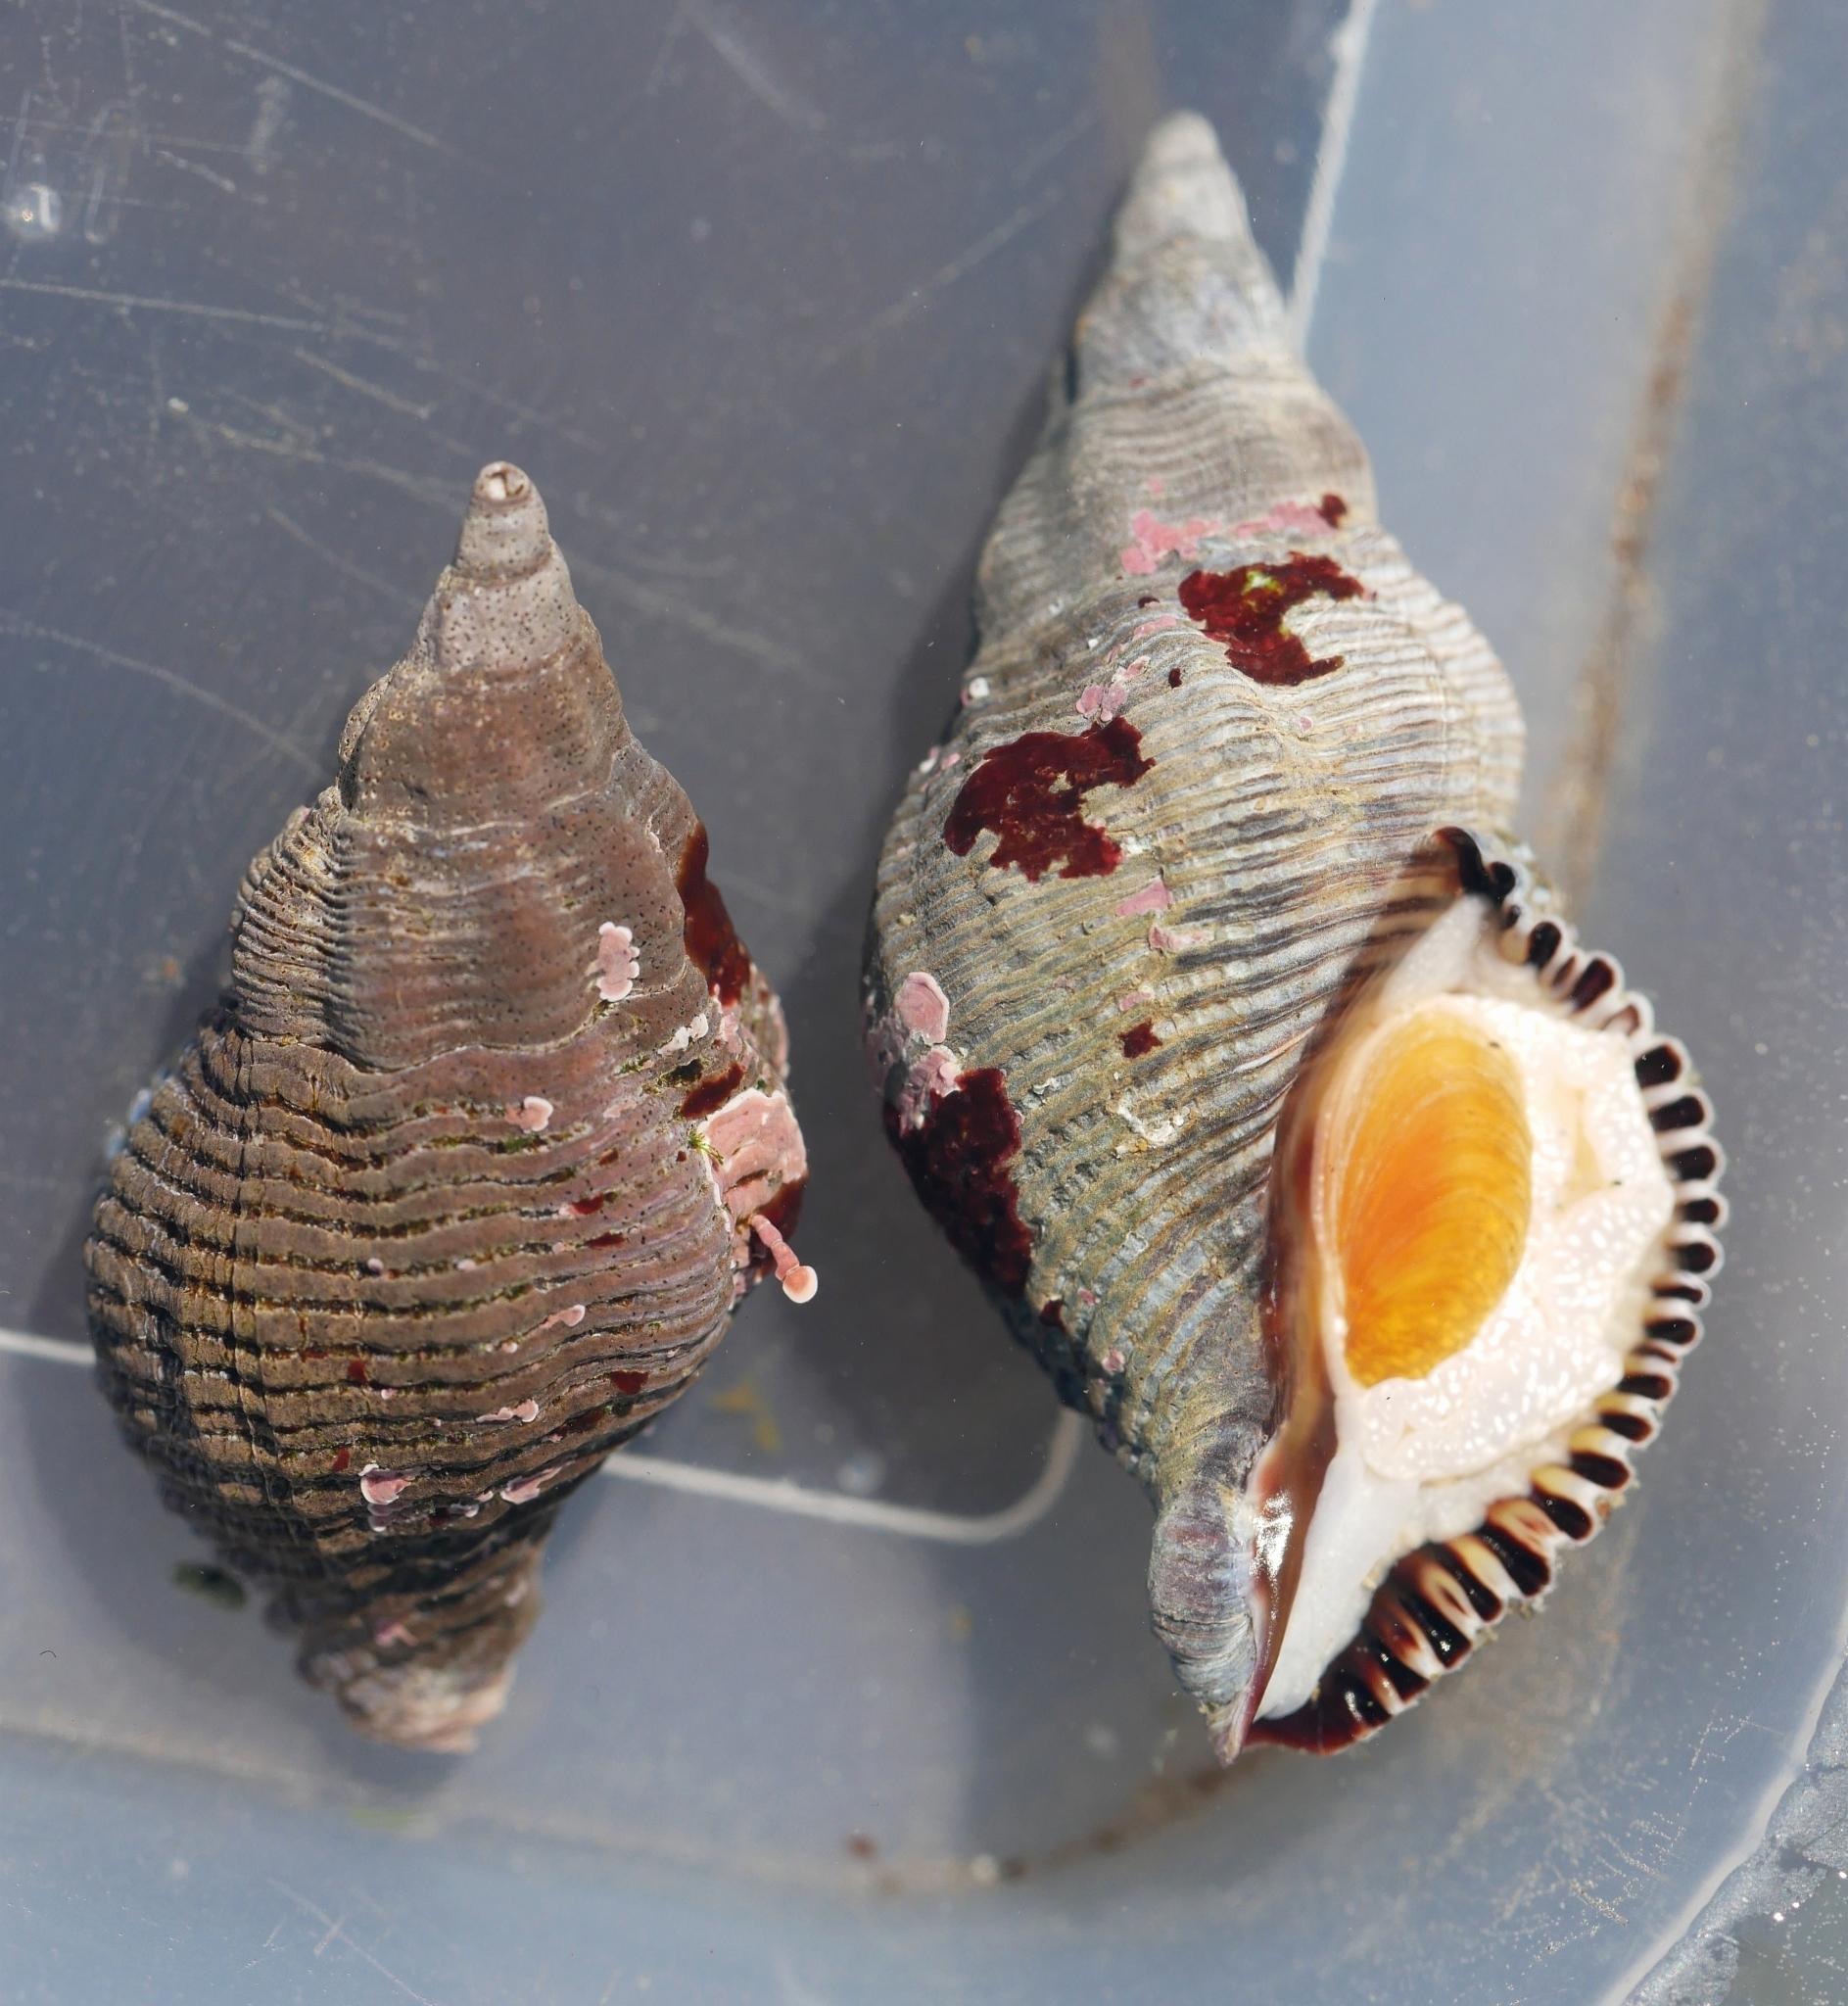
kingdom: Animalia
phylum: Mollusca
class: Gastropoda
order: Neogastropoda
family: Tudiclidae
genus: Lirabuccinum
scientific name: Lirabuccinum dirum
